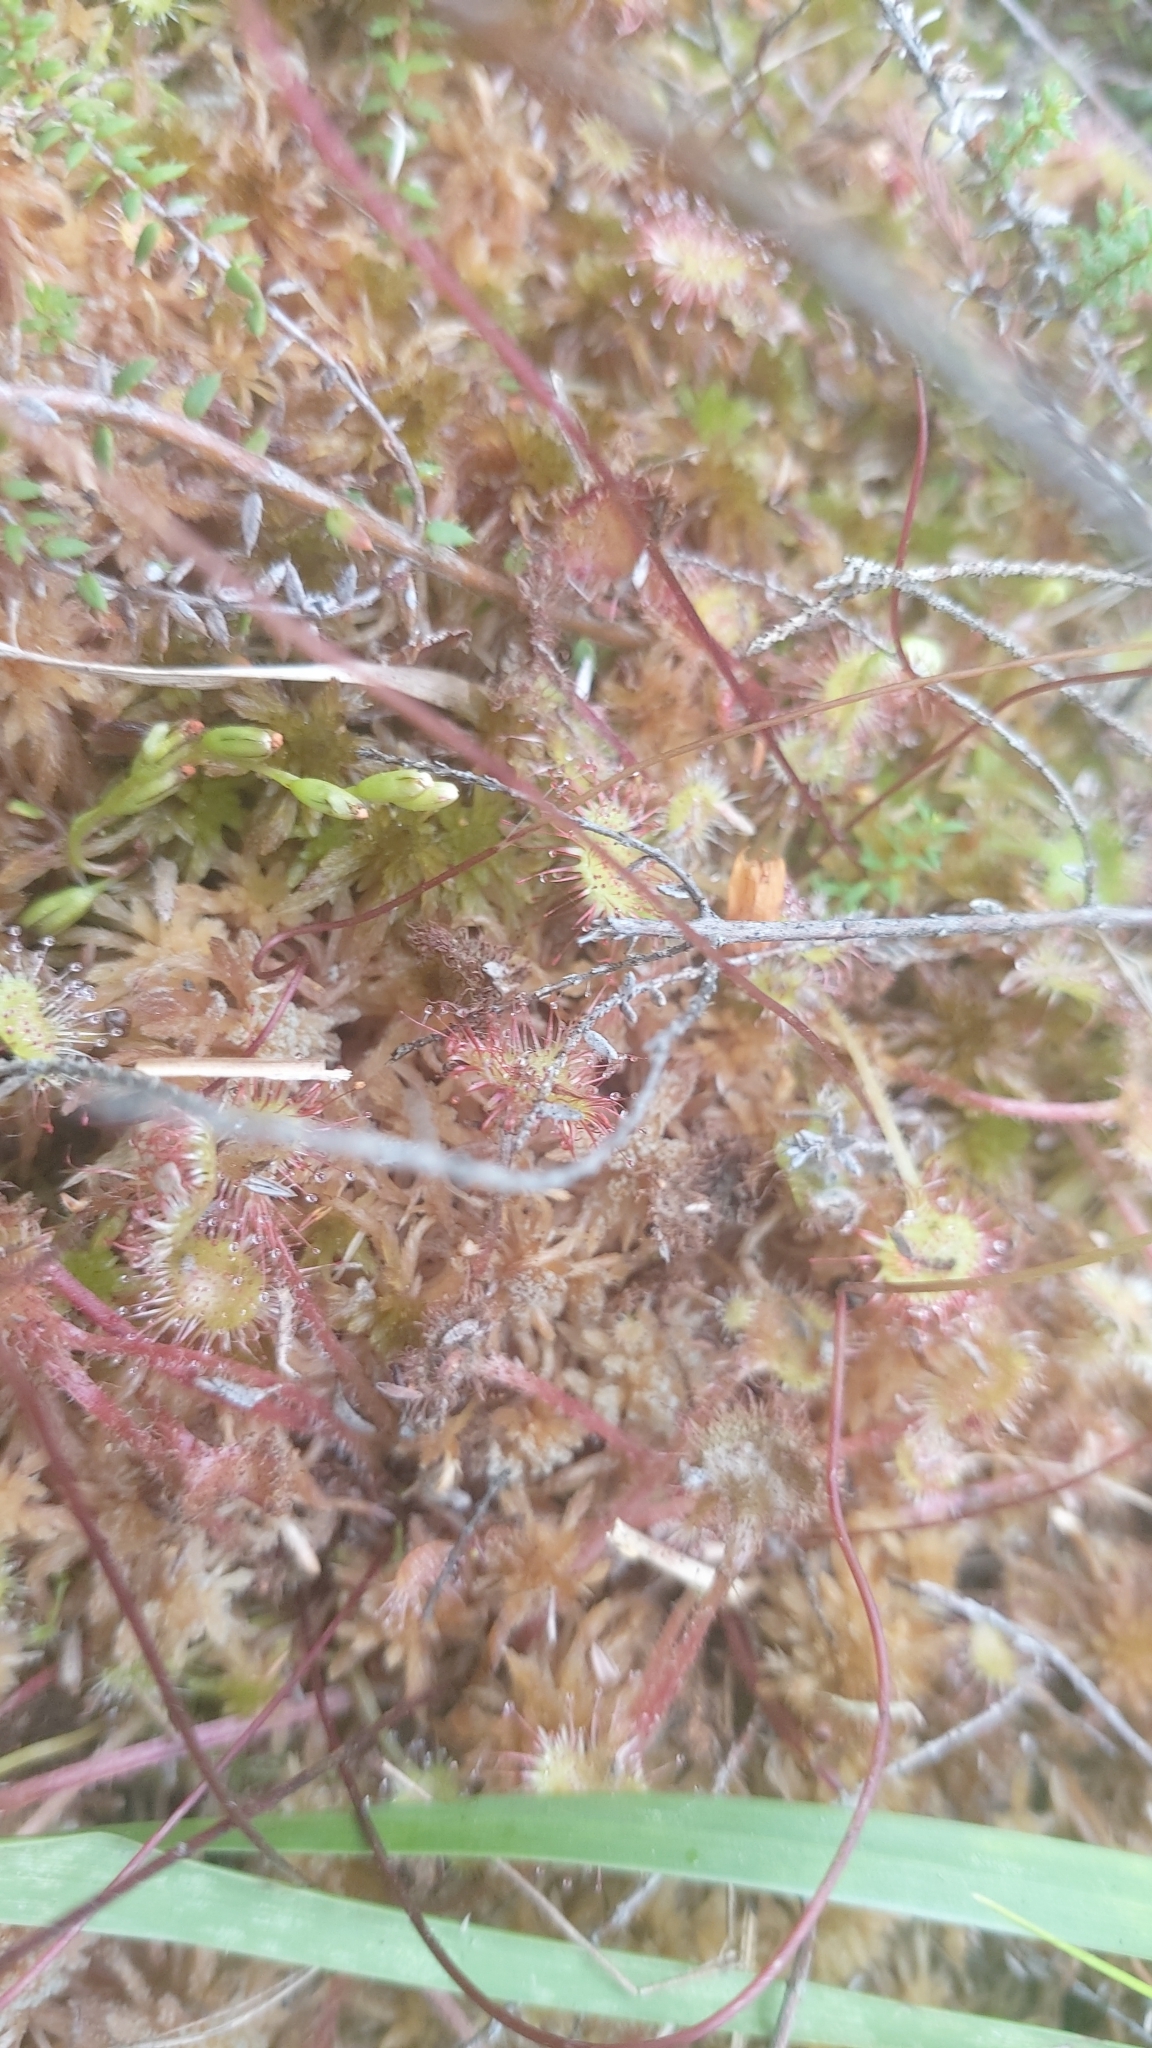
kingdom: Plantae
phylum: Tracheophyta
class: Magnoliopsida
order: Caryophyllales
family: Droseraceae
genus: Drosera
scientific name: Drosera rotundifolia
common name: Round-leaved sundew
